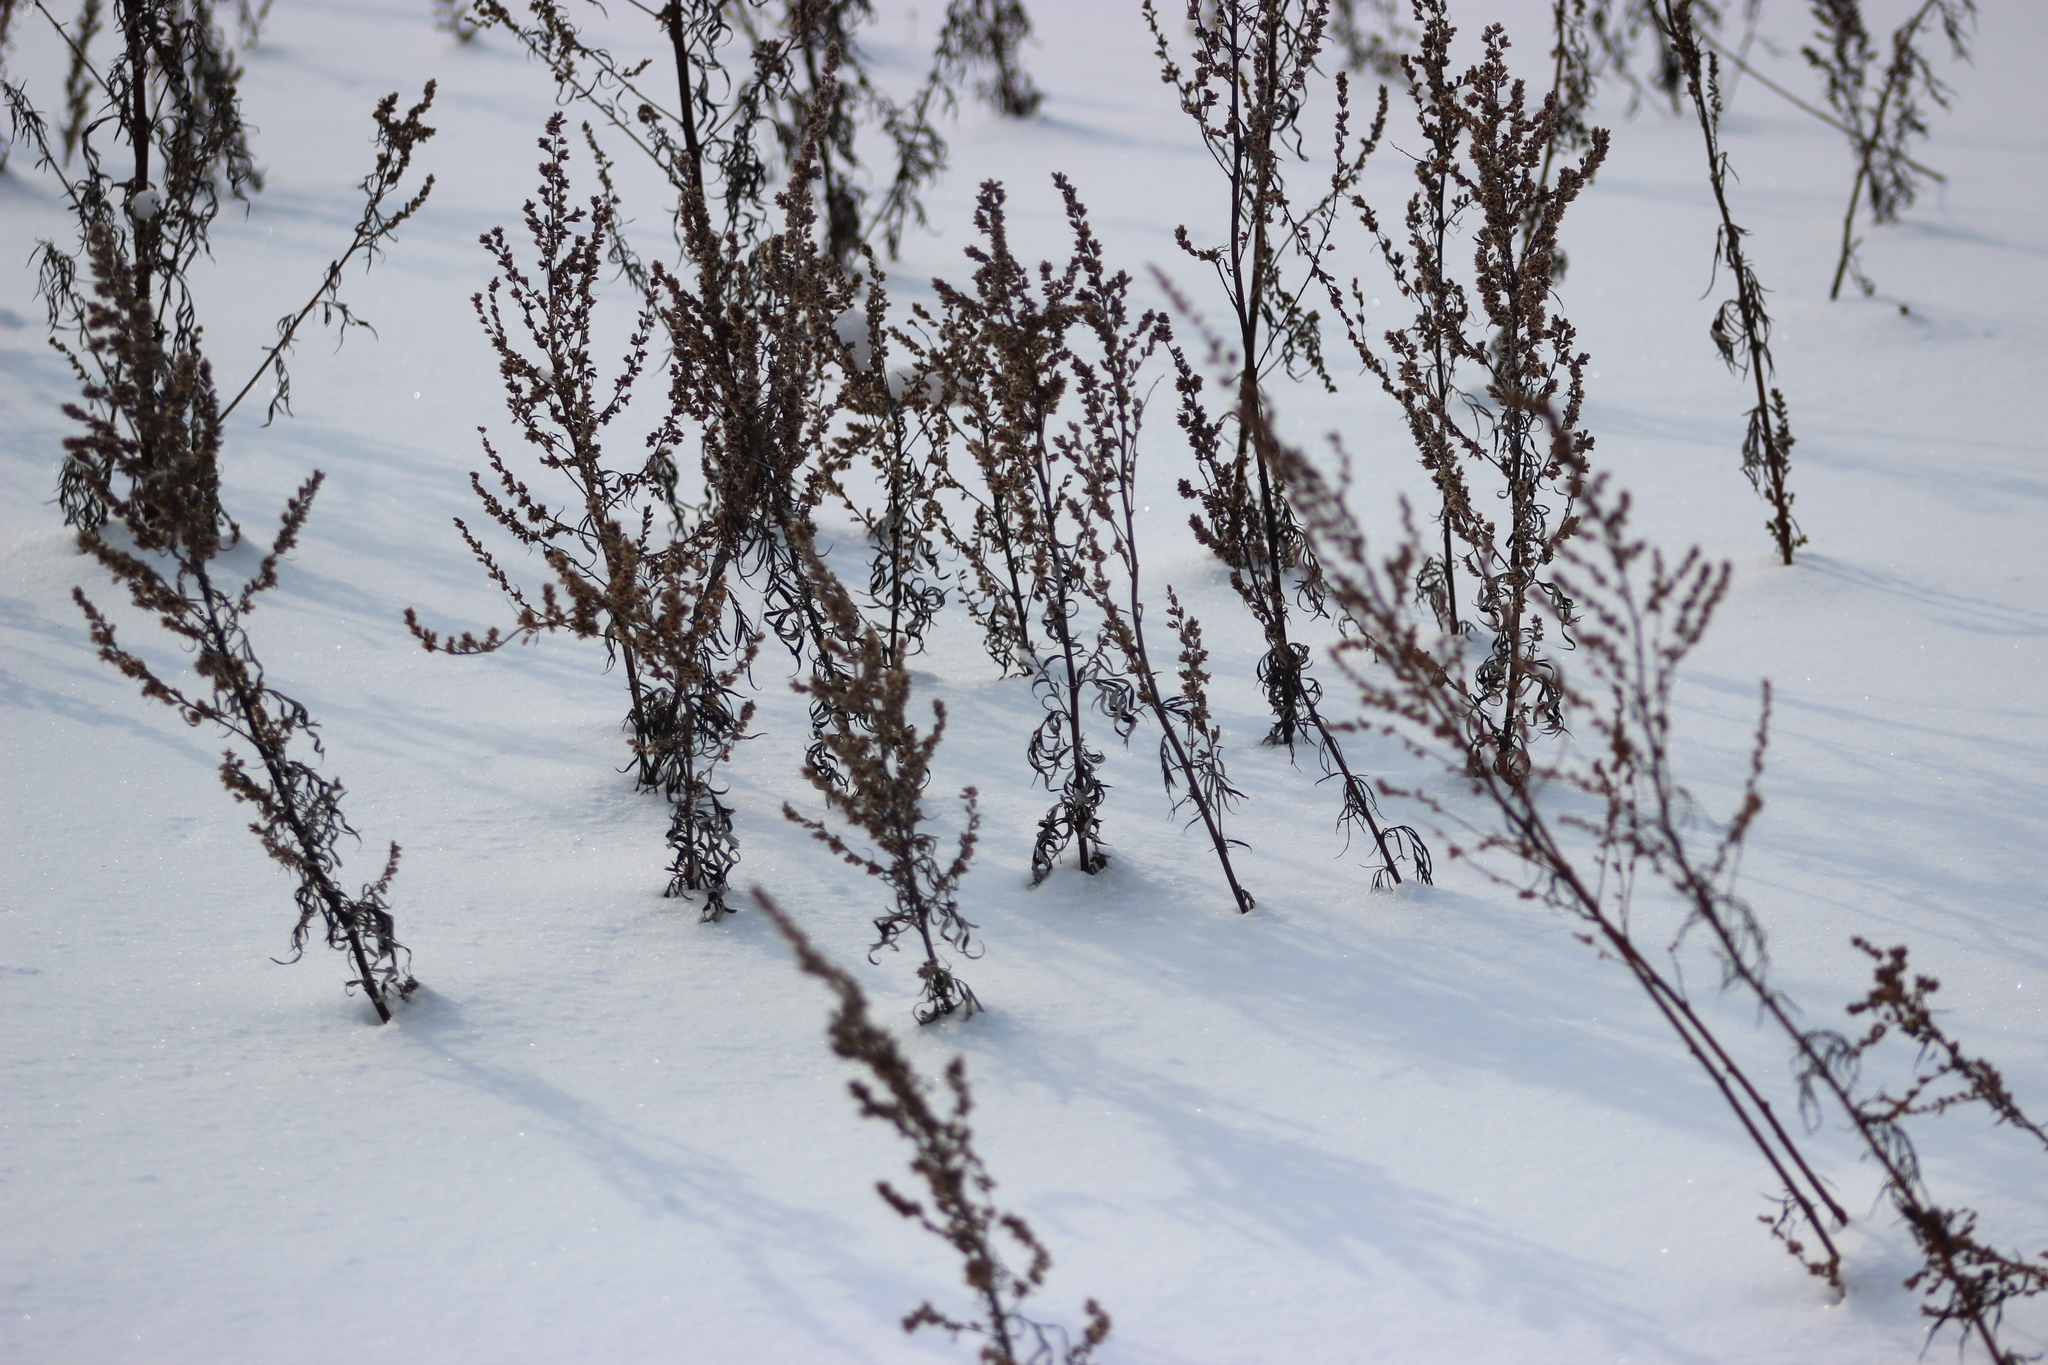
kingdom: Plantae
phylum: Tracheophyta
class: Magnoliopsida
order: Asterales
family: Asteraceae
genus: Artemisia
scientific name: Artemisia vulgaris
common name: Mugwort
